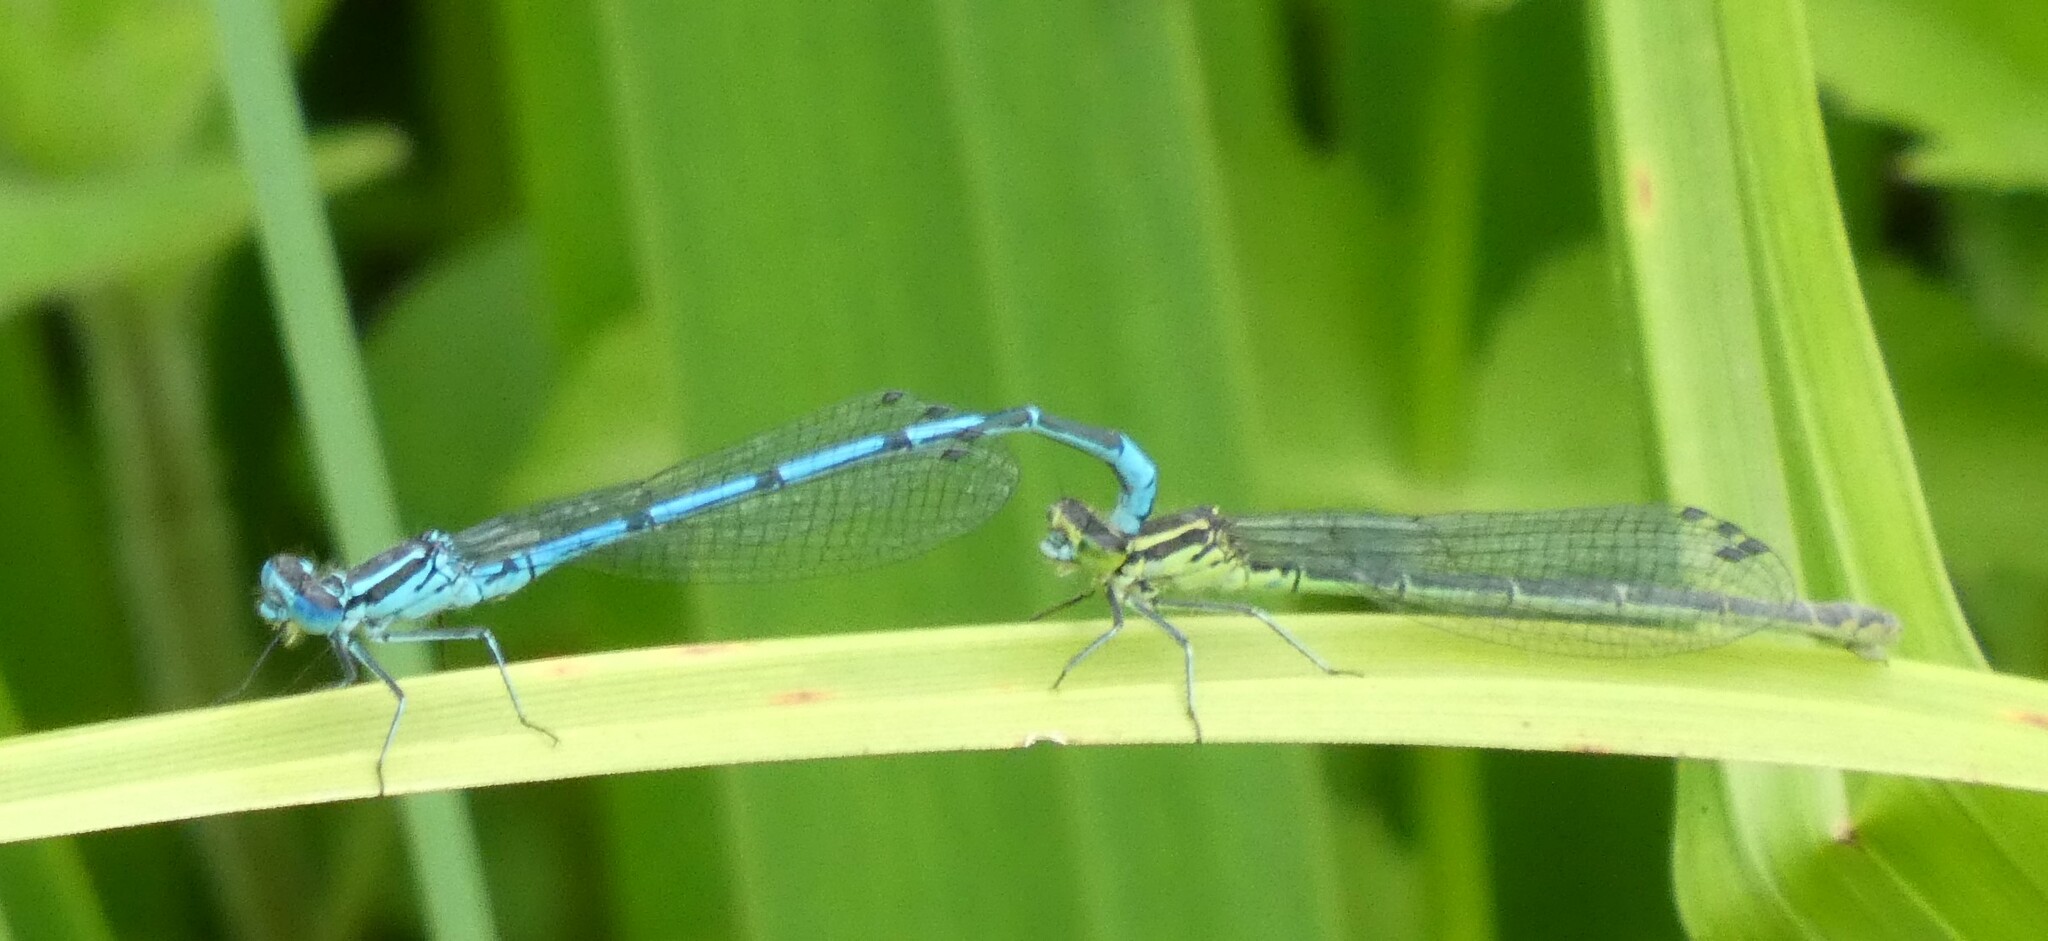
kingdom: Animalia
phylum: Arthropoda
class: Insecta
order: Odonata
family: Coenagrionidae
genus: Coenagrion
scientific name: Coenagrion puella
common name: Azure damselfly
